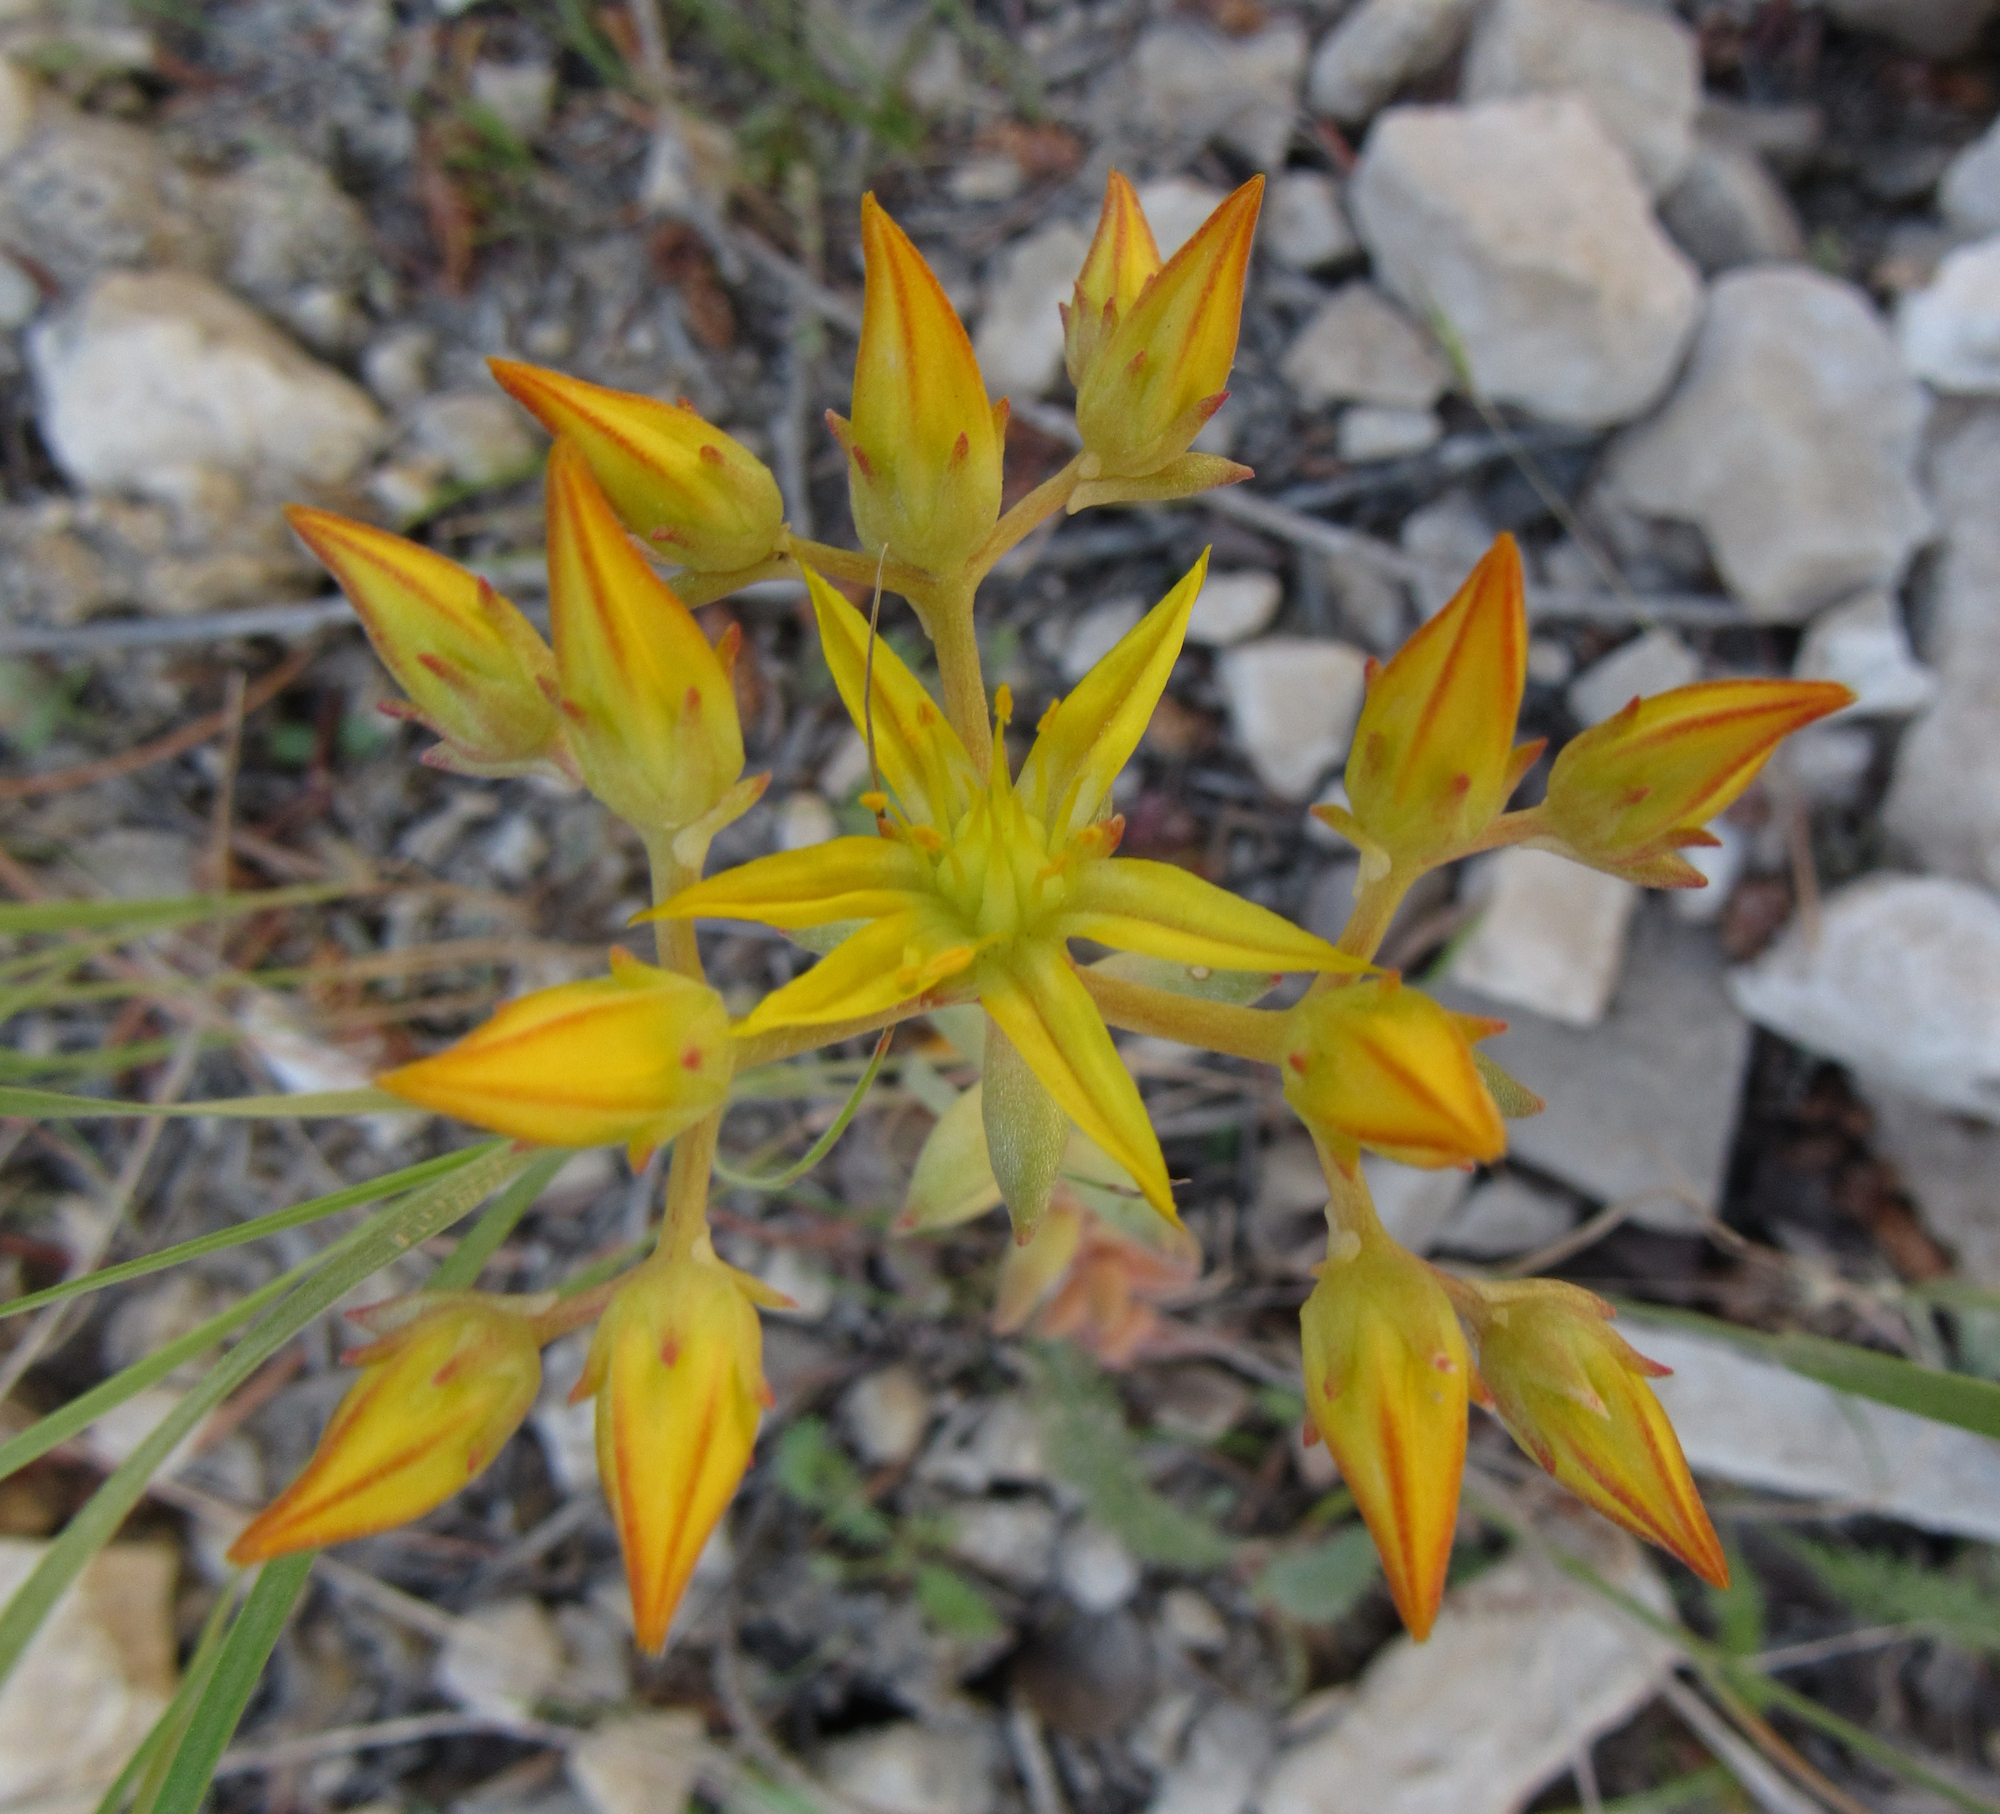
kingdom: Plantae
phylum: Tracheophyta
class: Magnoliopsida
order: Saxifragales
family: Crassulaceae
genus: Sedum
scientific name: Sedum lanceolatum
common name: Common stonecrop
